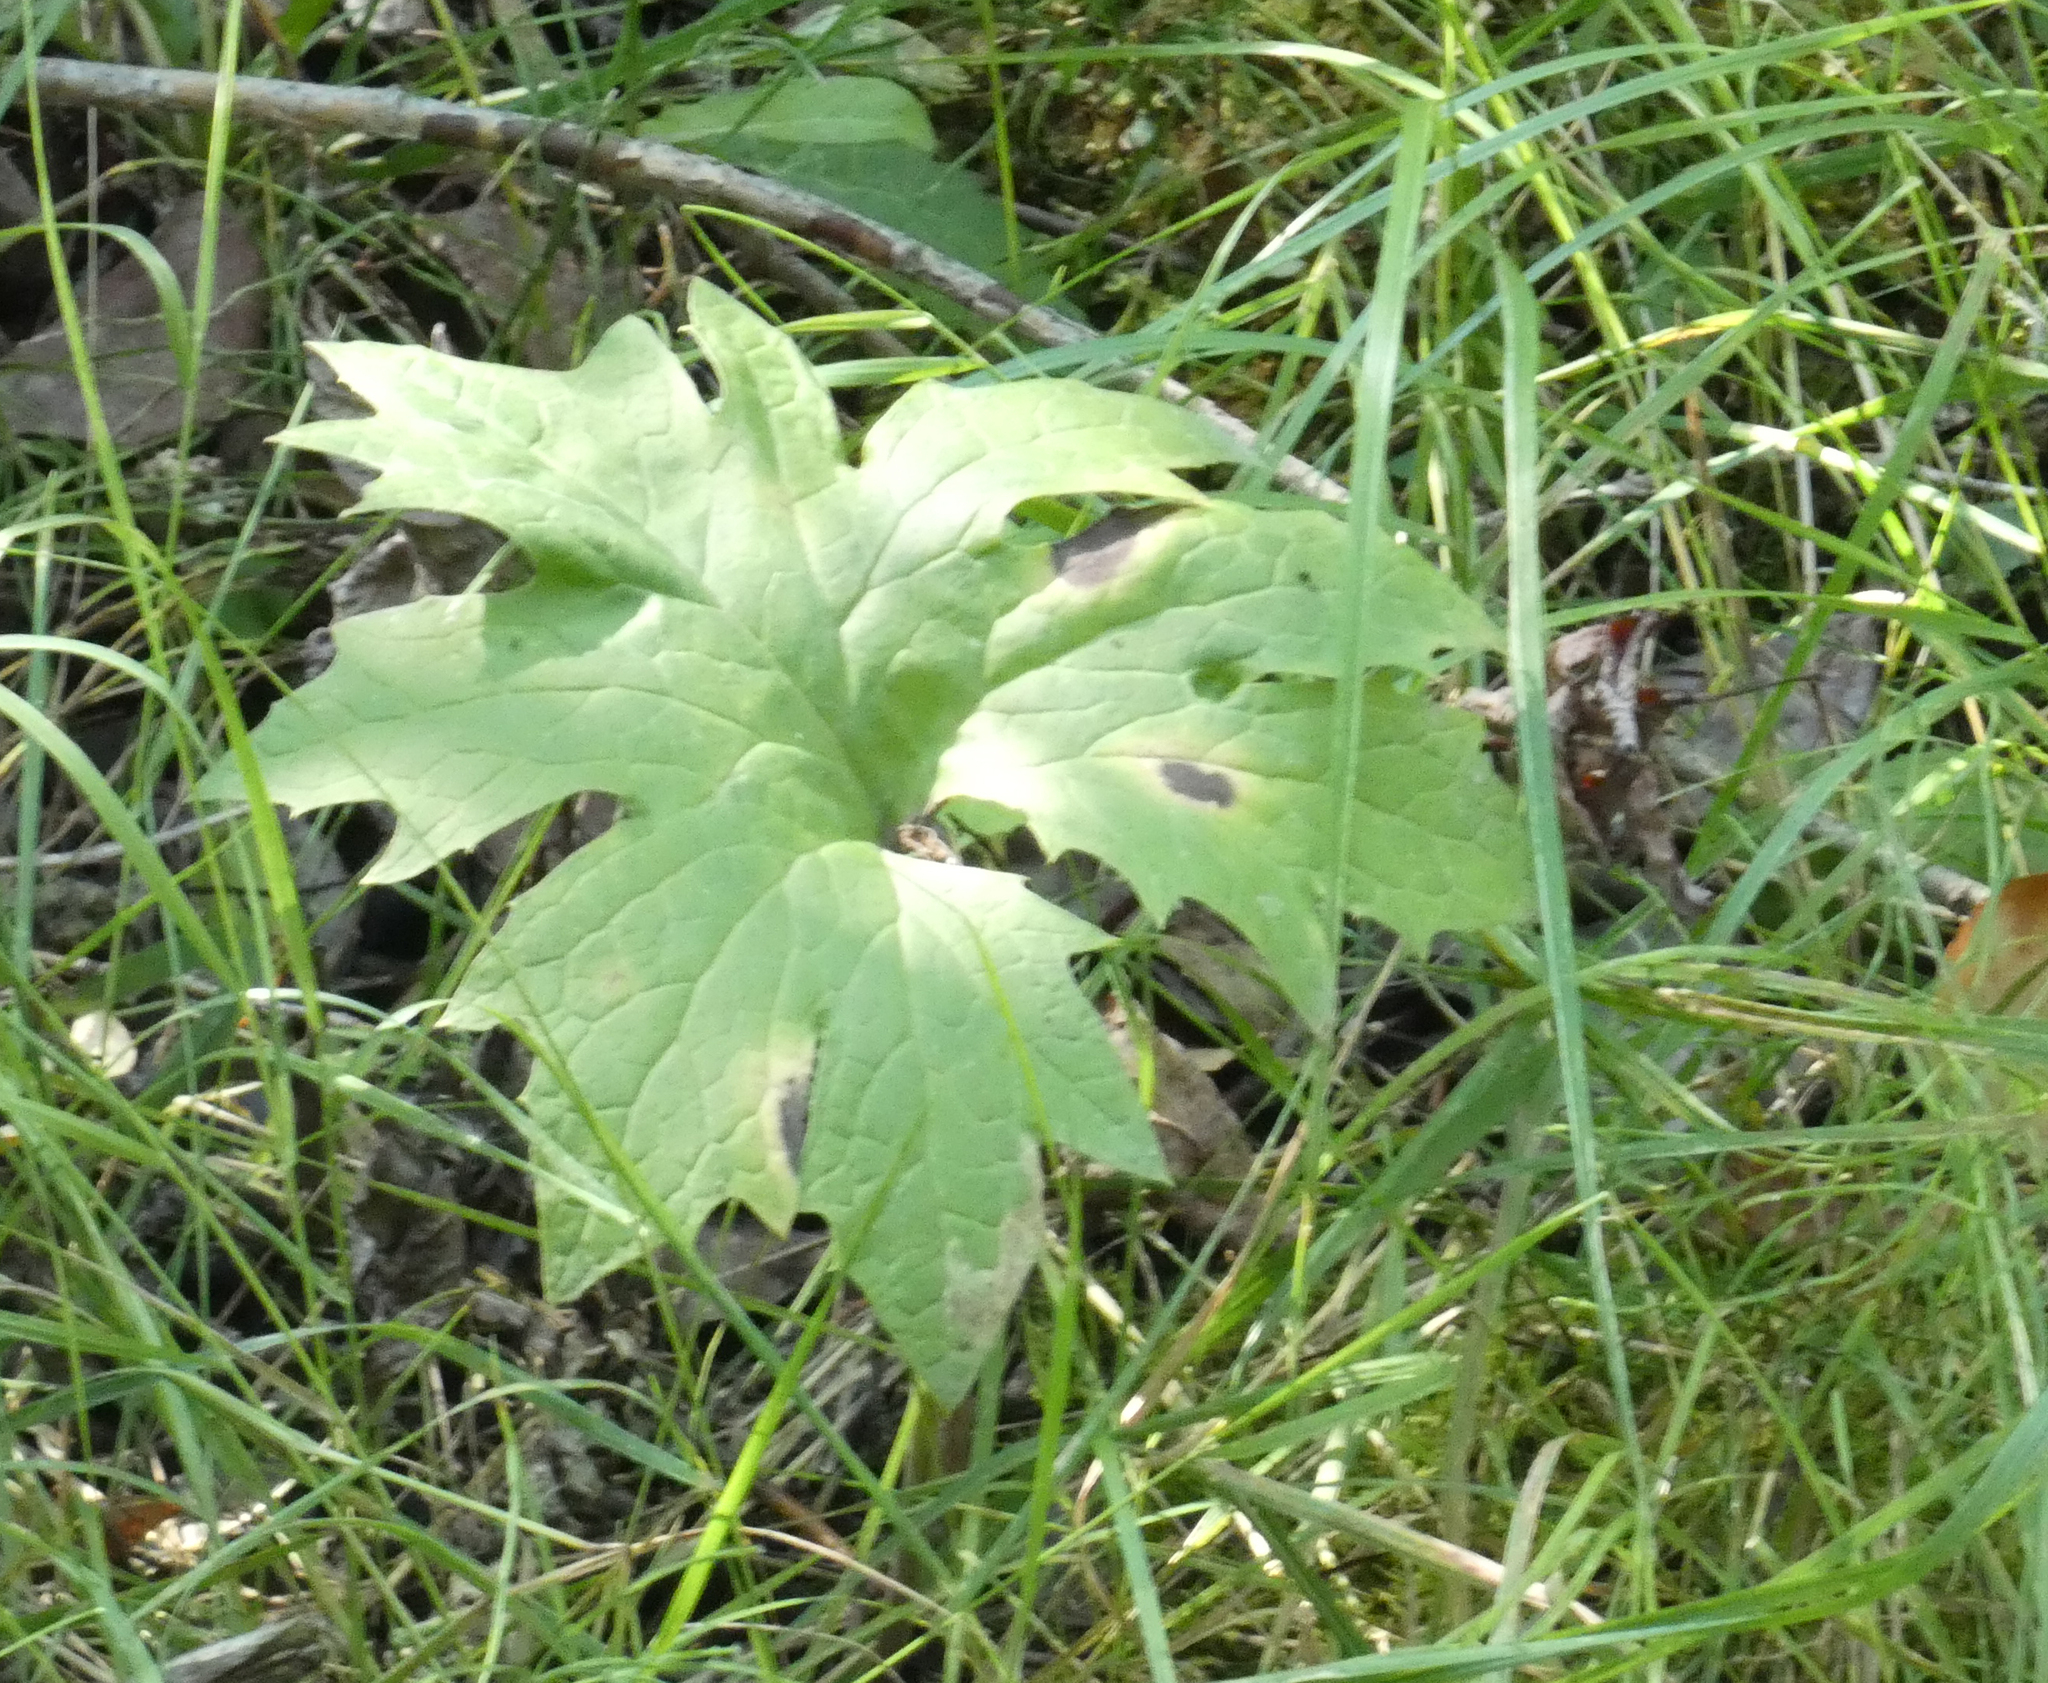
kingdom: Plantae
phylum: Tracheophyta
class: Magnoliopsida
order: Asterales
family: Asteraceae
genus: Petasites
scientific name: Petasites frigidus
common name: Arctic butterbur
